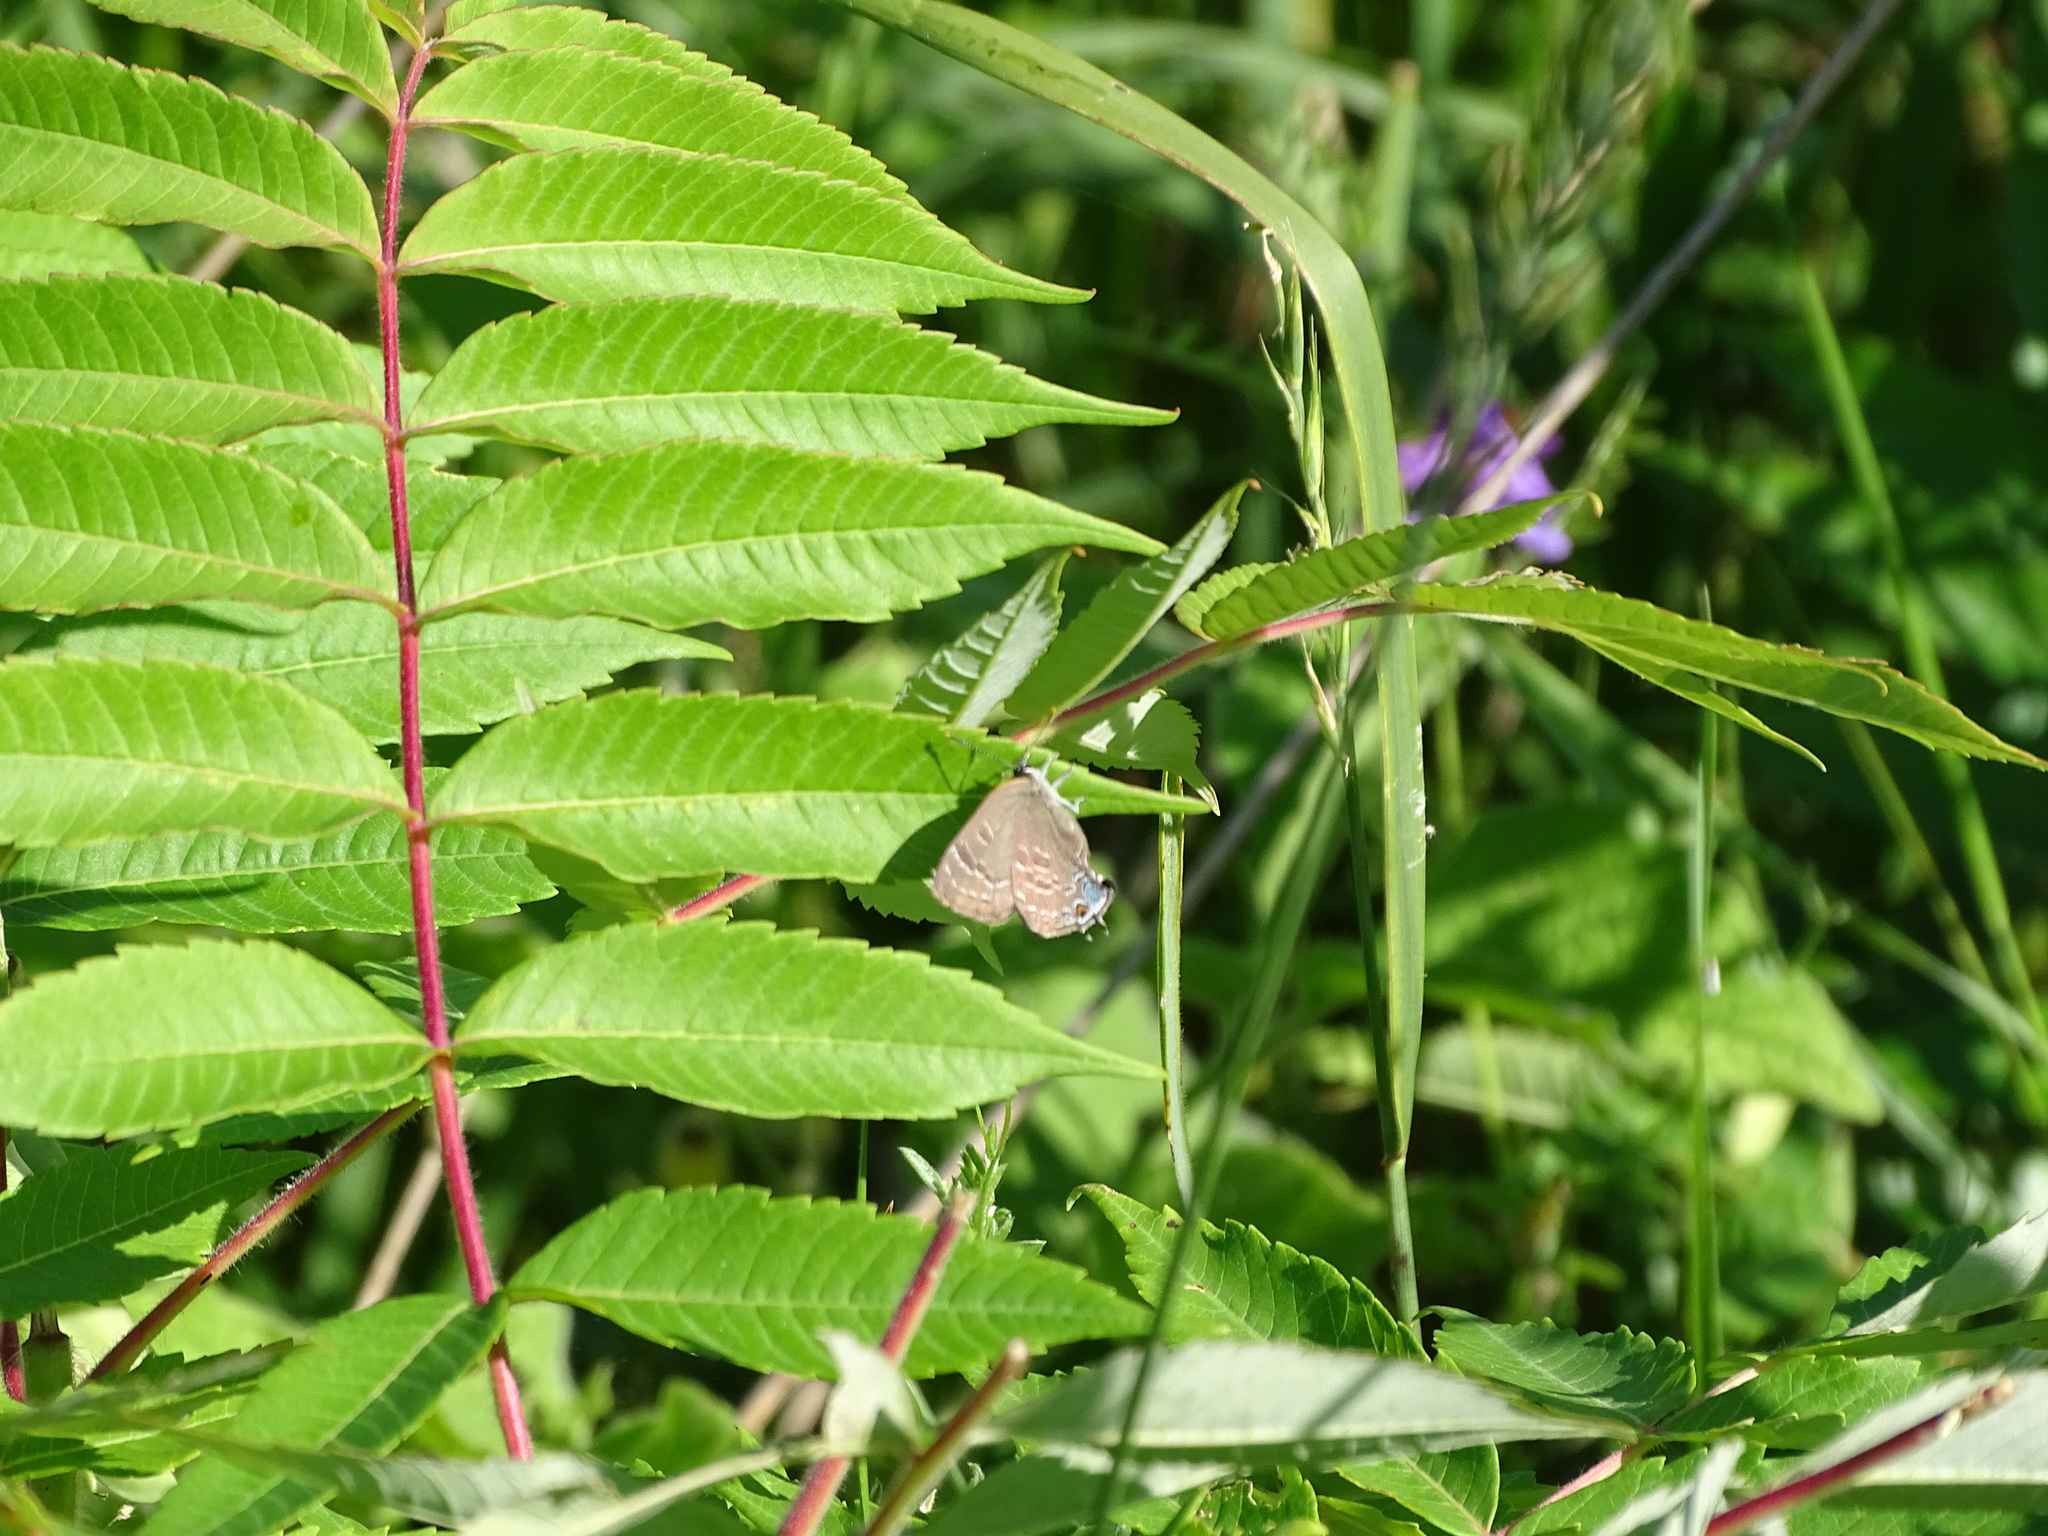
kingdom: Animalia
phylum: Arthropoda
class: Insecta
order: Lepidoptera
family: Lycaenidae
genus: Strymon
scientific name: Strymon caryaevorus
